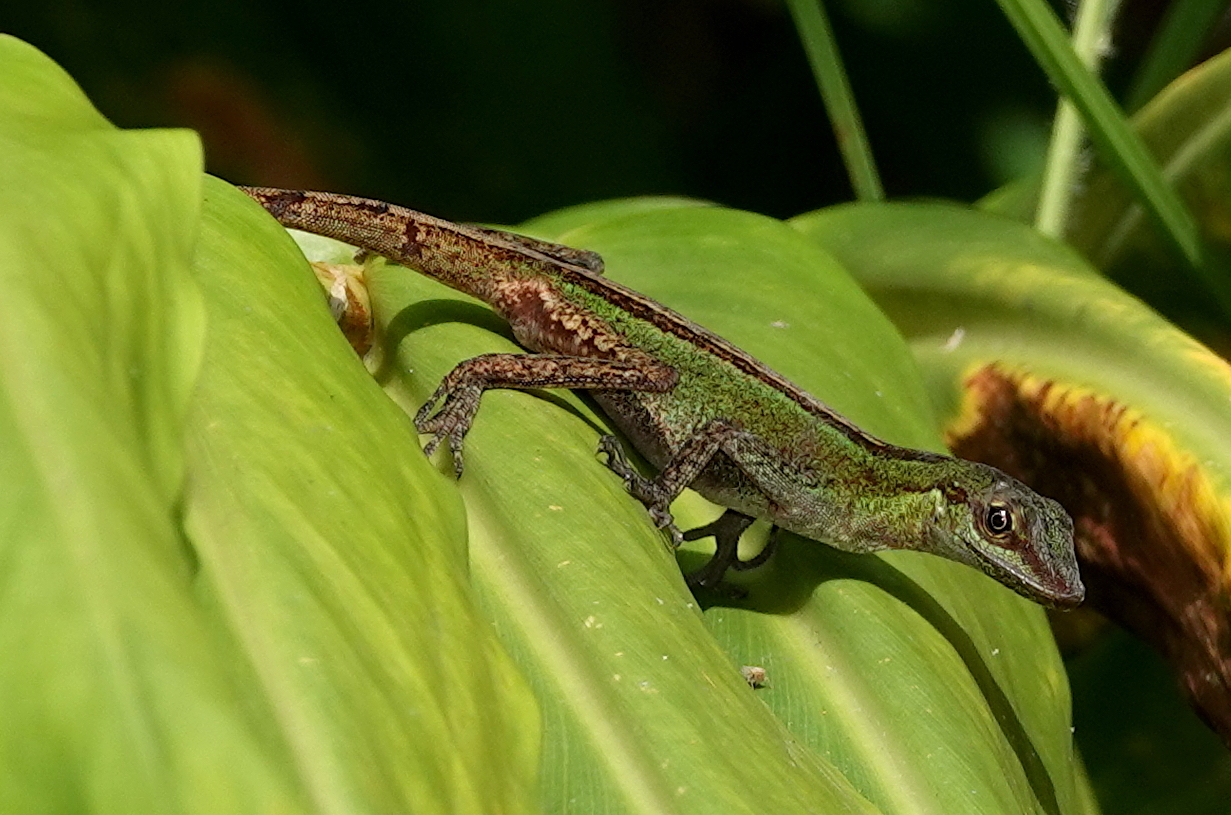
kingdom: Animalia
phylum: Chordata
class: Squamata
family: Dactyloidae
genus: Anolis
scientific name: Anolis ventrimaculatus
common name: Speckled anole
